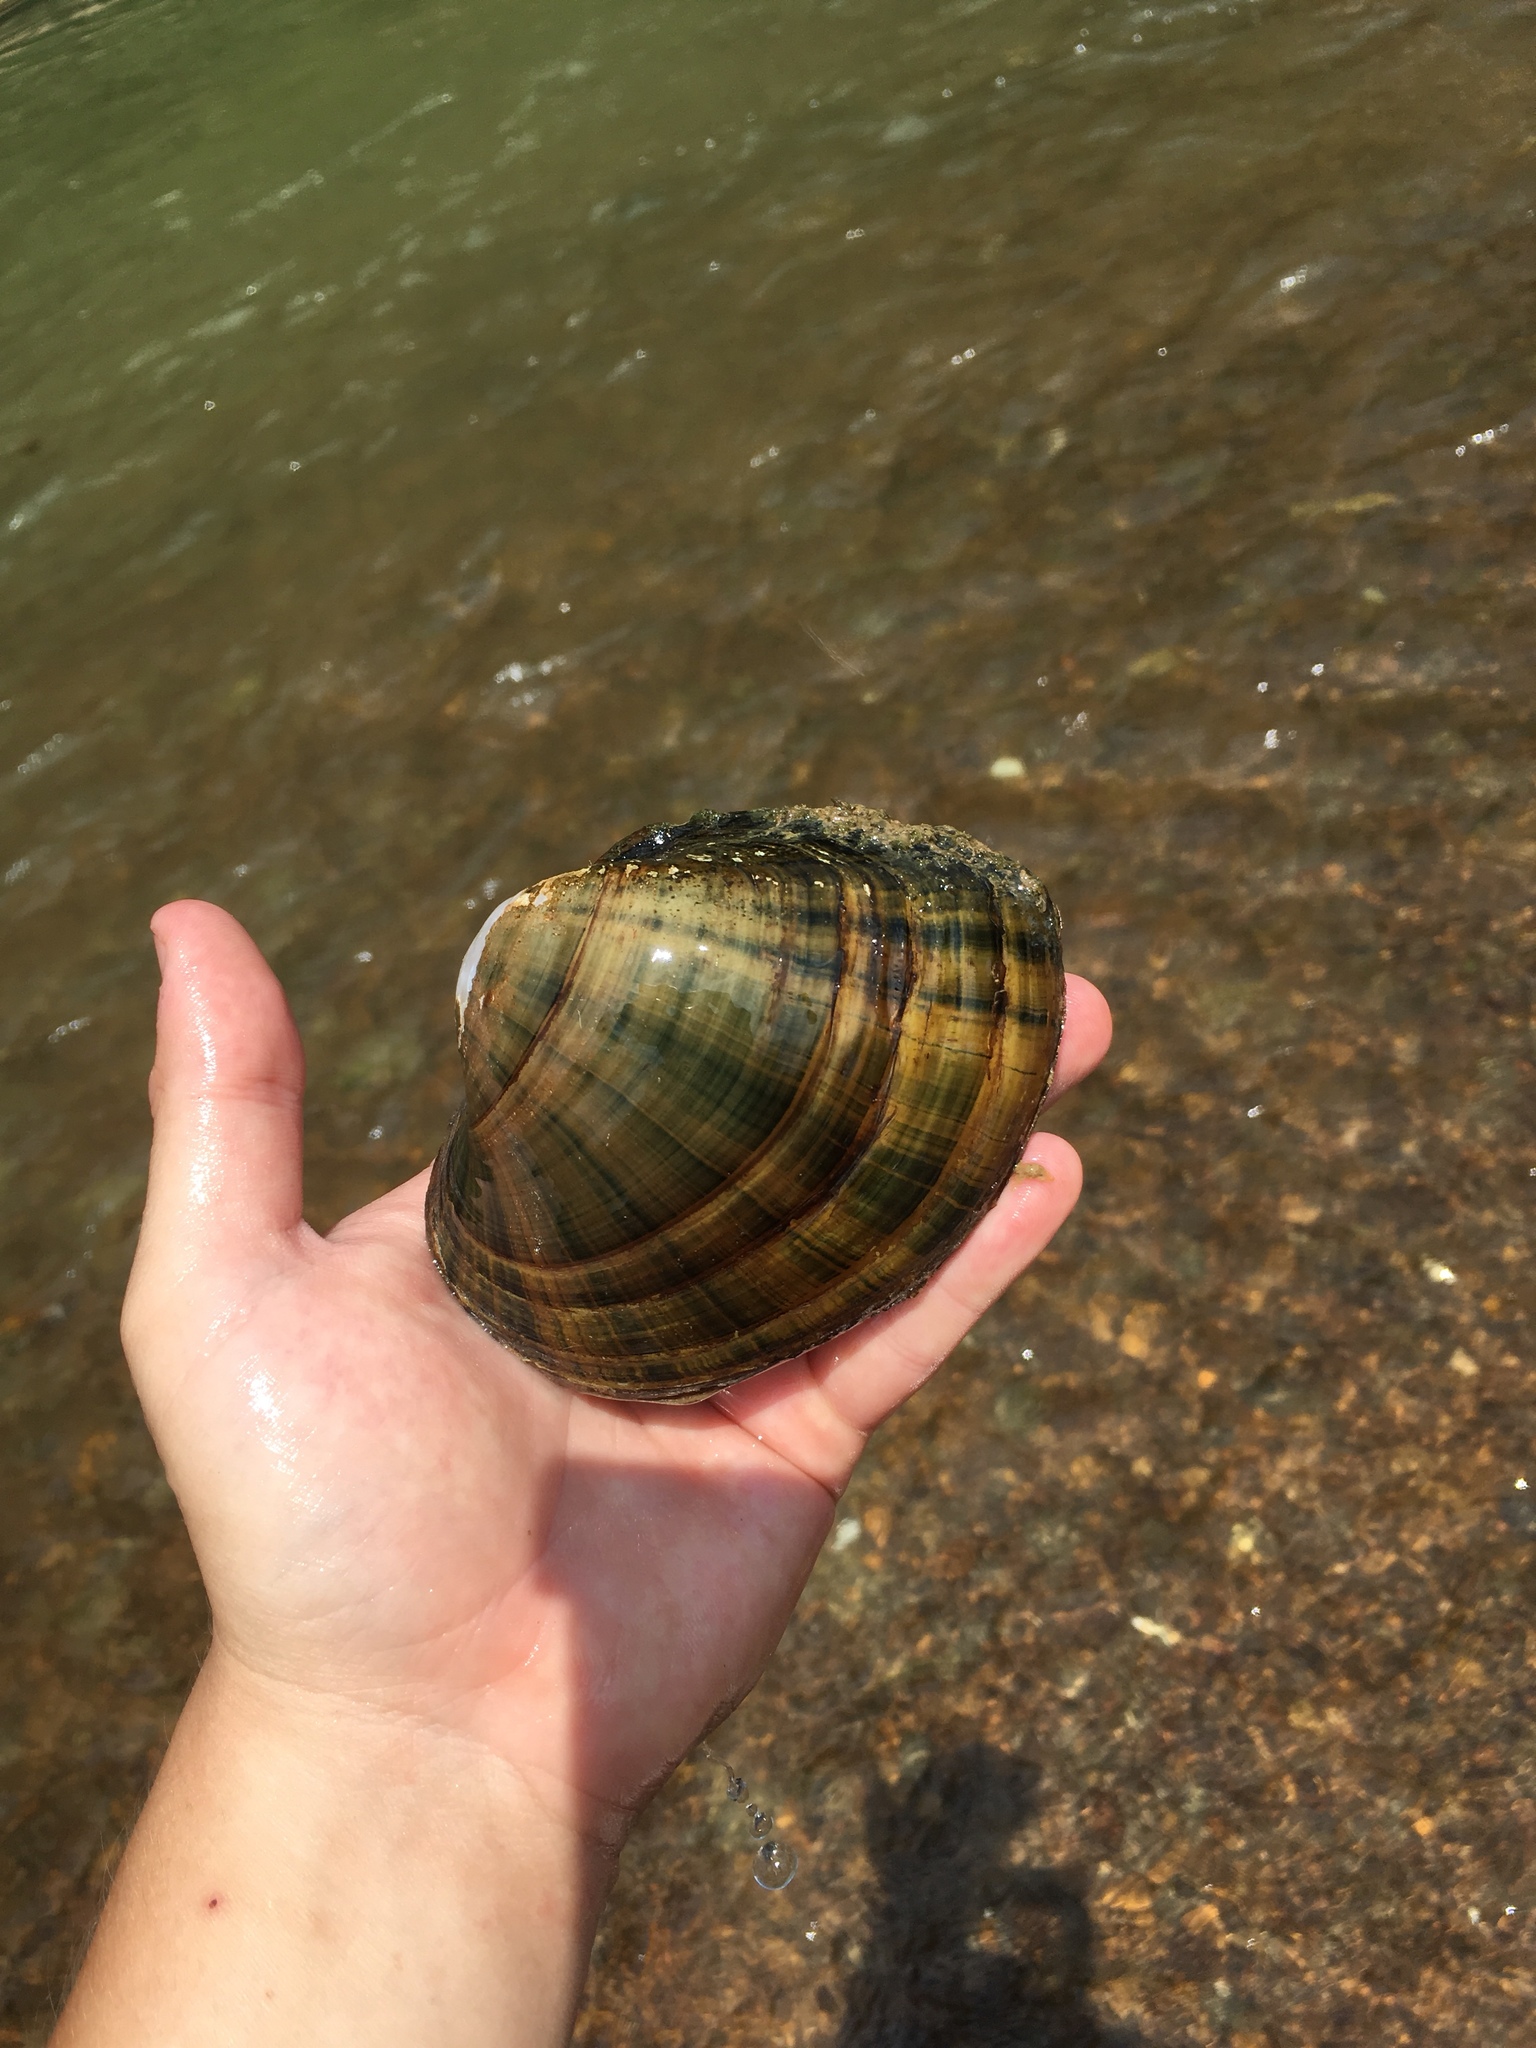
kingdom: Animalia
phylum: Mollusca
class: Bivalvia
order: Unionida
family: Unionidae
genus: Lampsilis
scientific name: Lampsilis cardium
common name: Plain pocketbook
